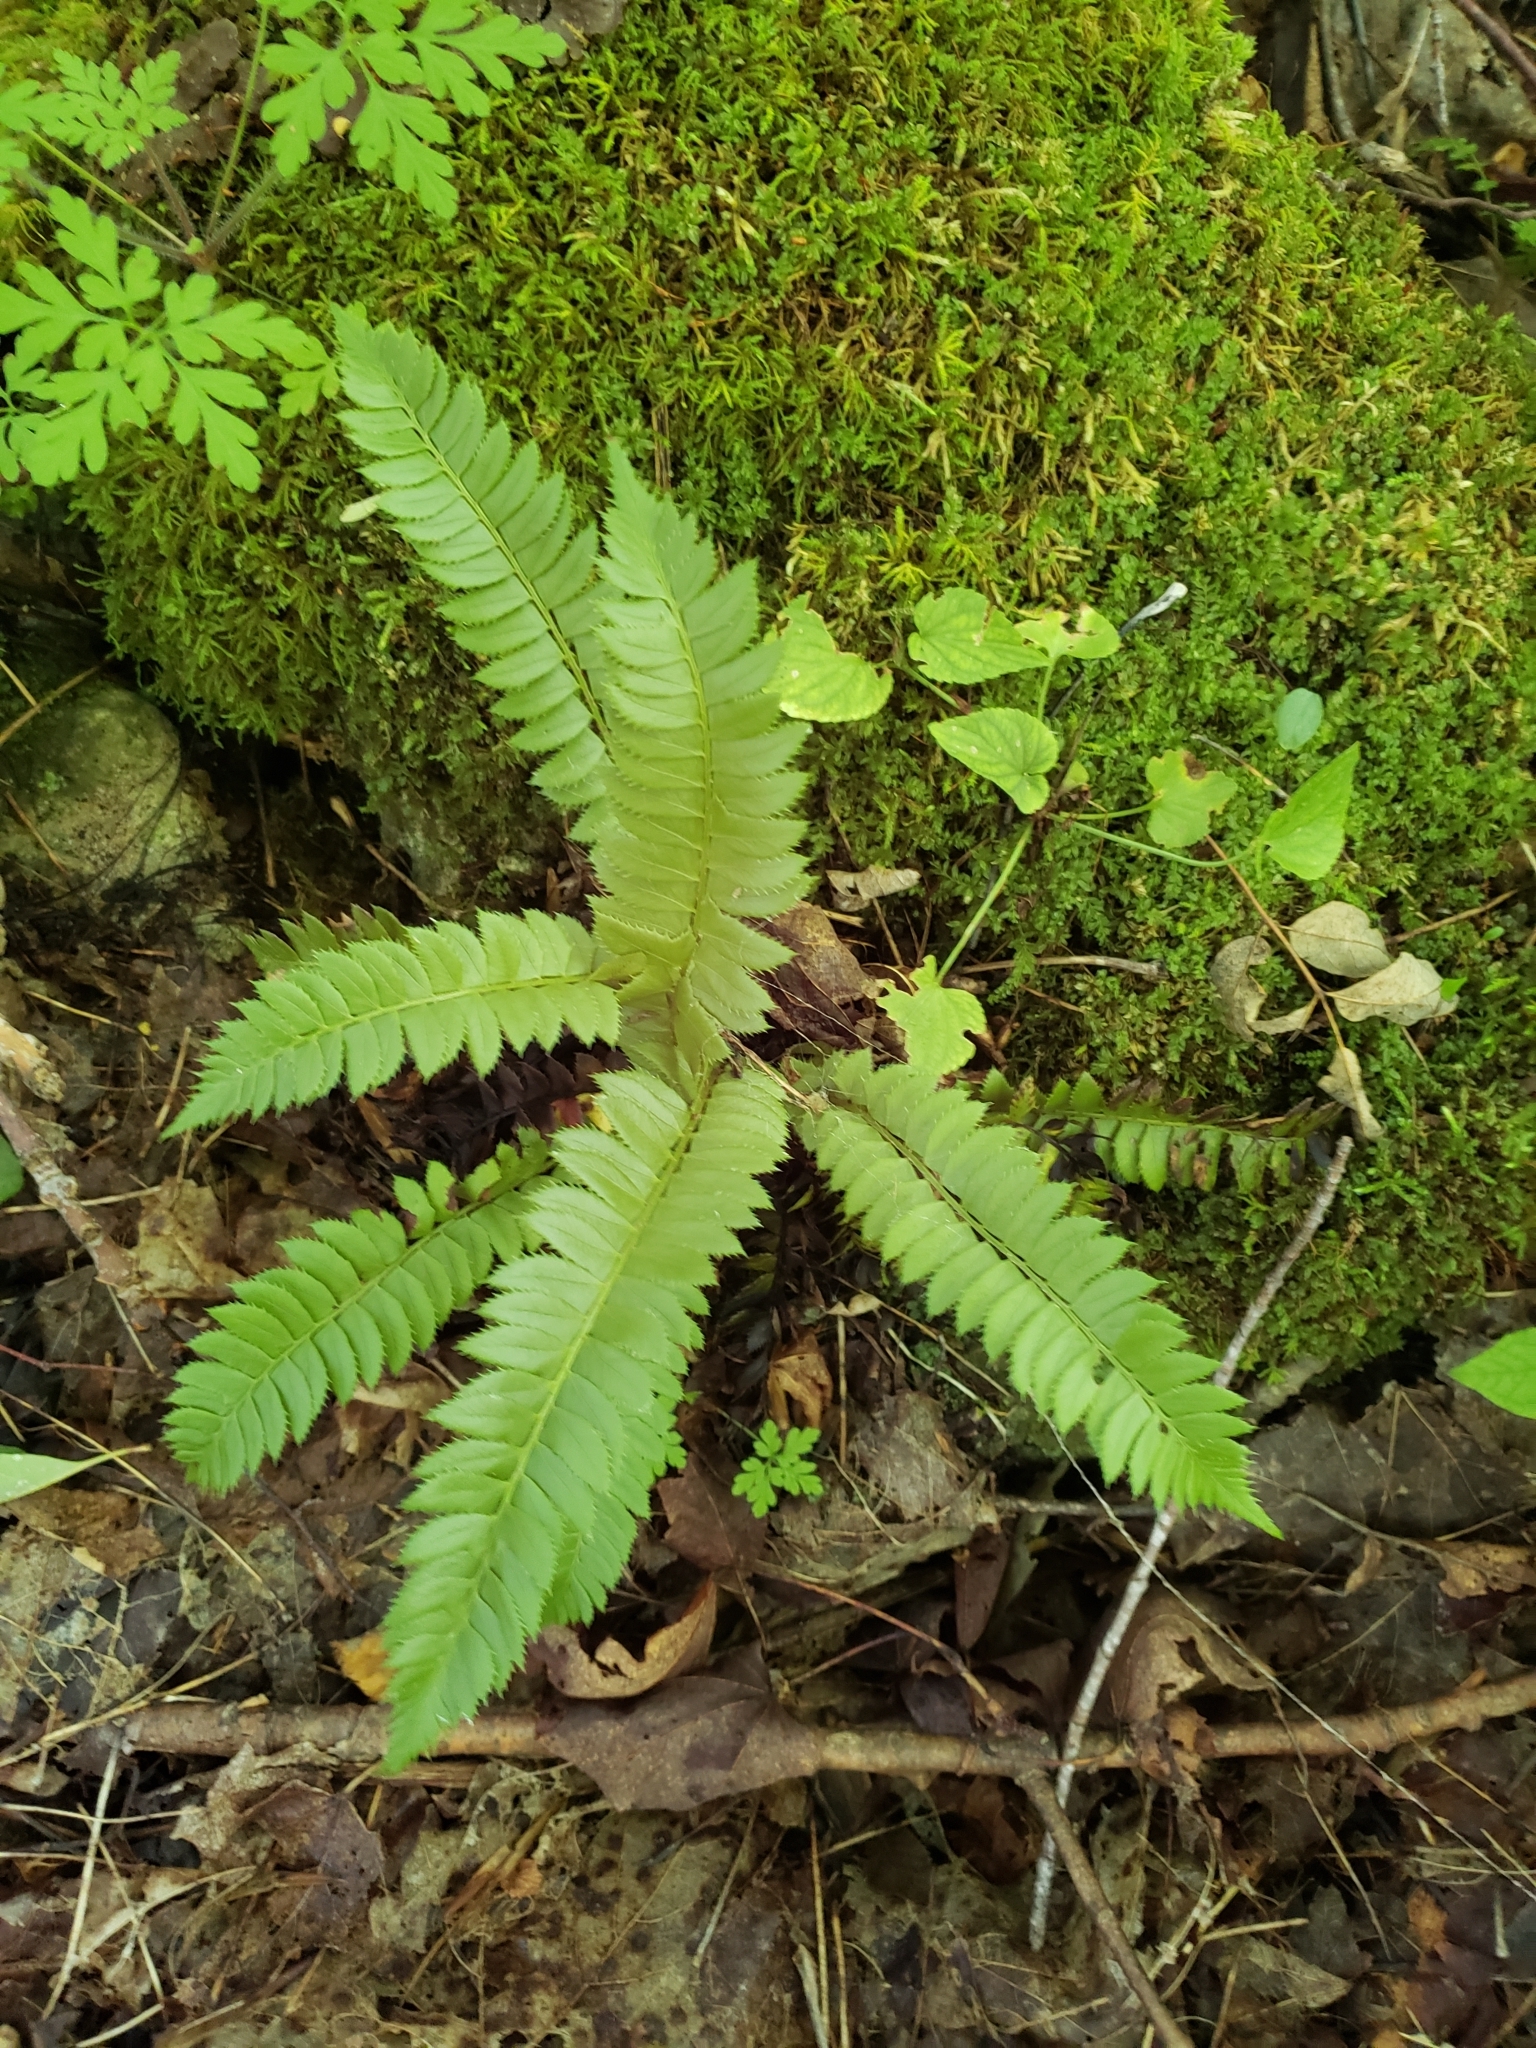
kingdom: Plantae
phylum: Tracheophyta
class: Polypodiopsida
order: Polypodiales
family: Dryopteridaceae
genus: Polystichum
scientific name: Polystichum lonchitis
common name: Holly fern
